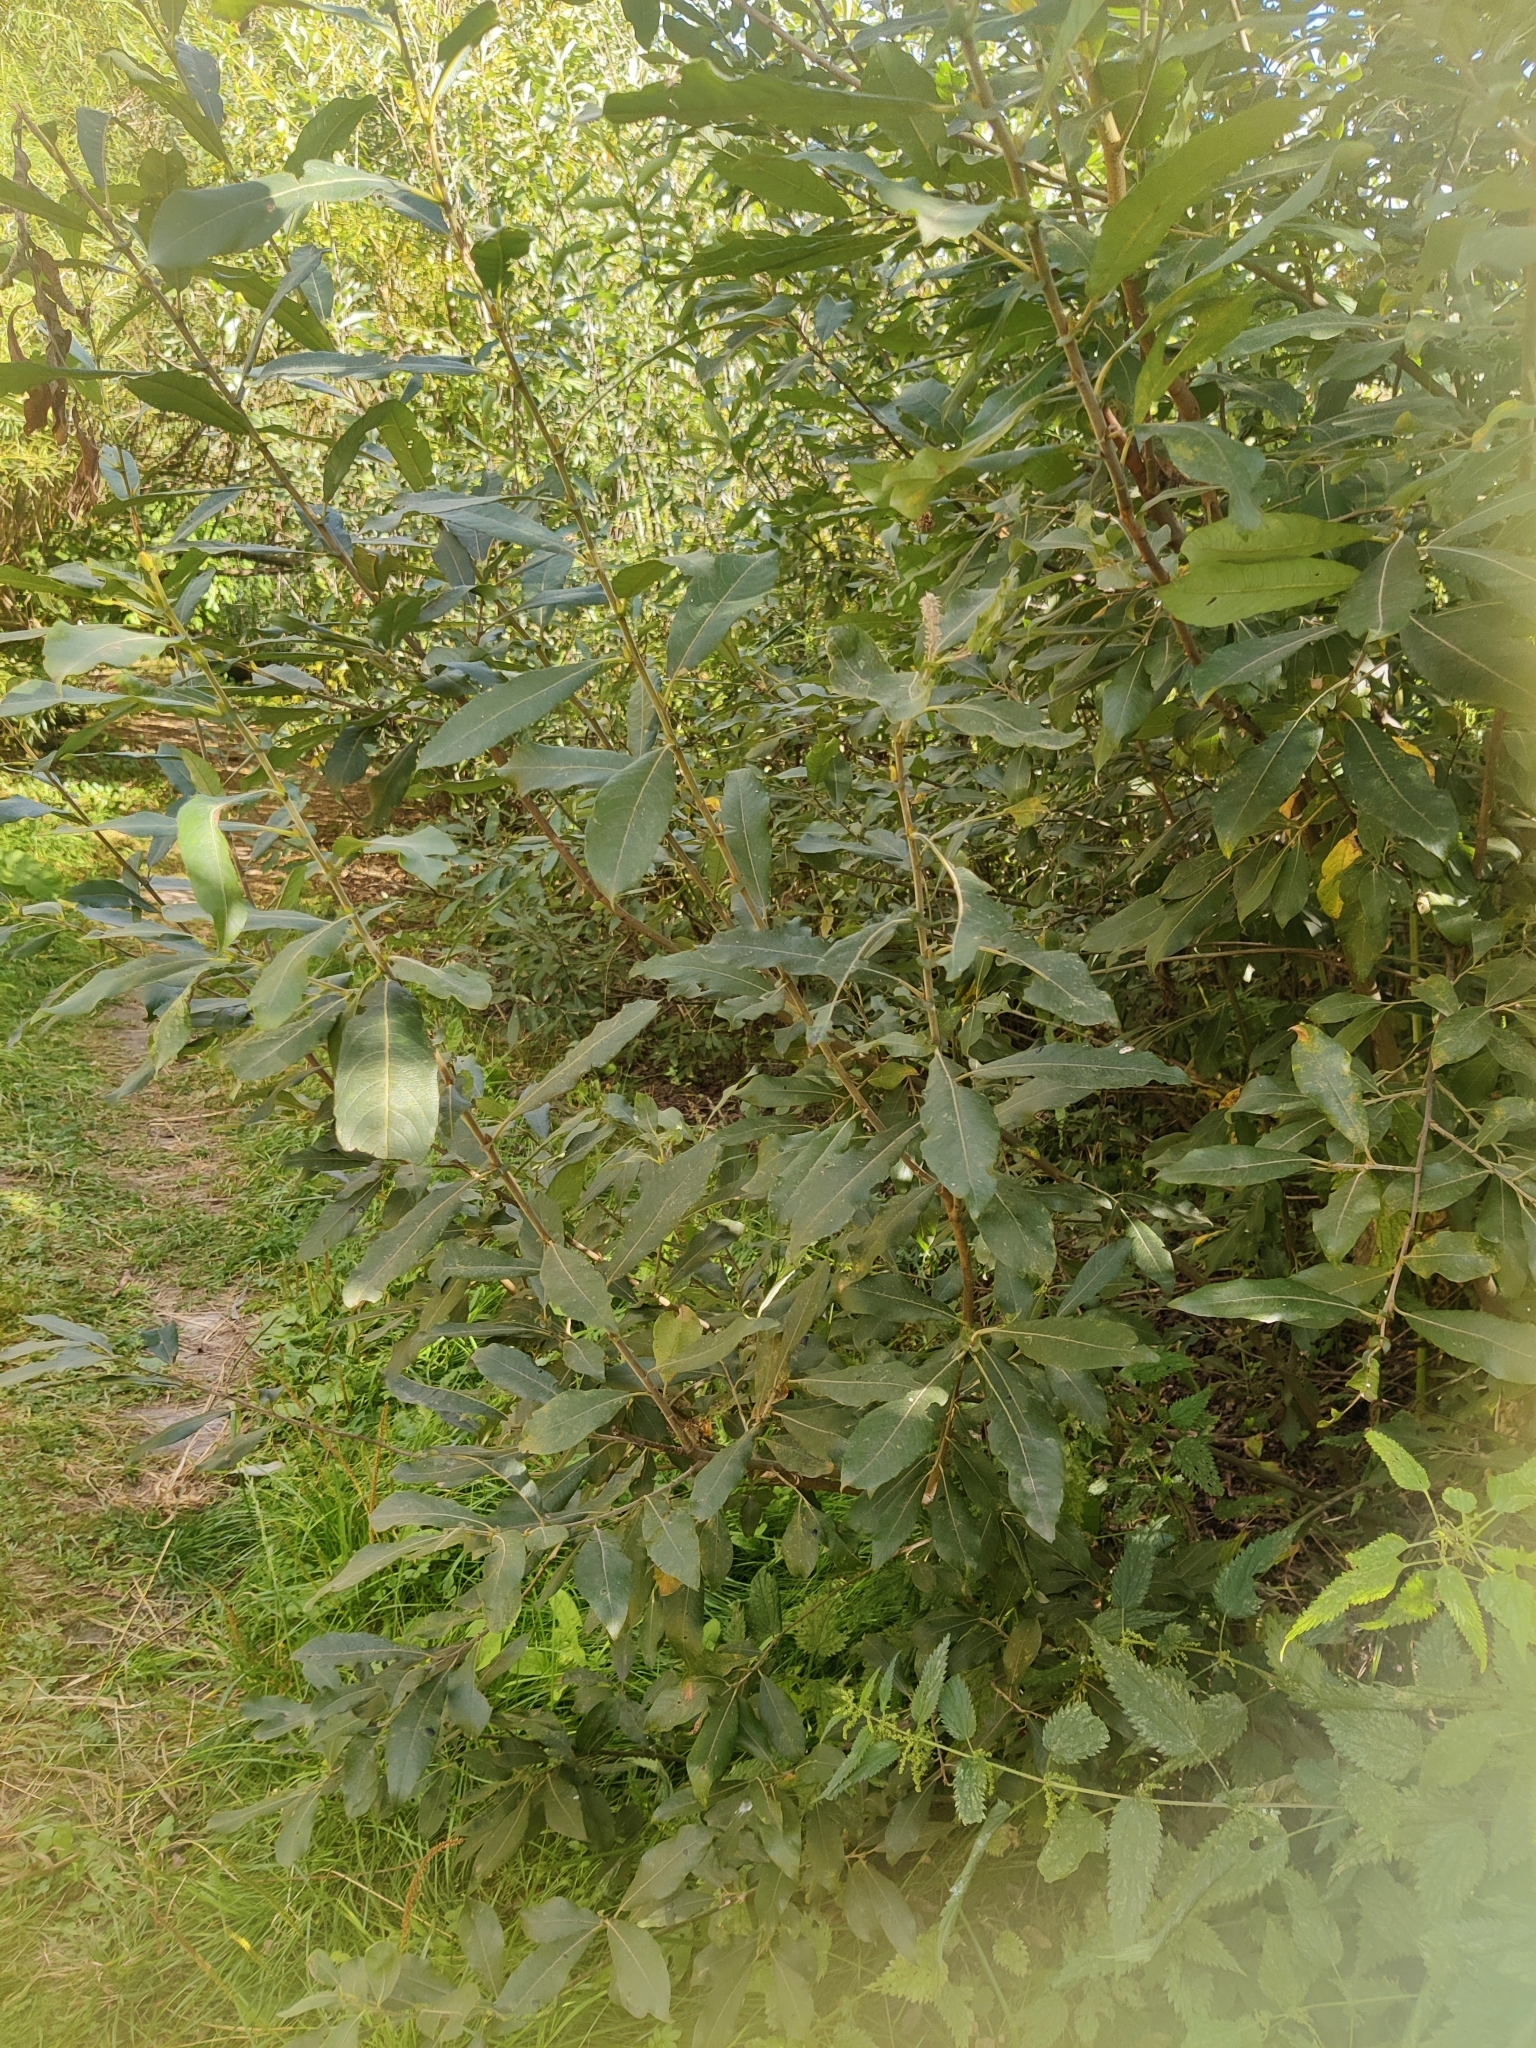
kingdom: Plantae
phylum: Tracheophyta
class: Magnoliopsida
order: Malpighiales
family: Salicaceae
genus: Salix
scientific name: Salix cinerea
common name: Common sallow
